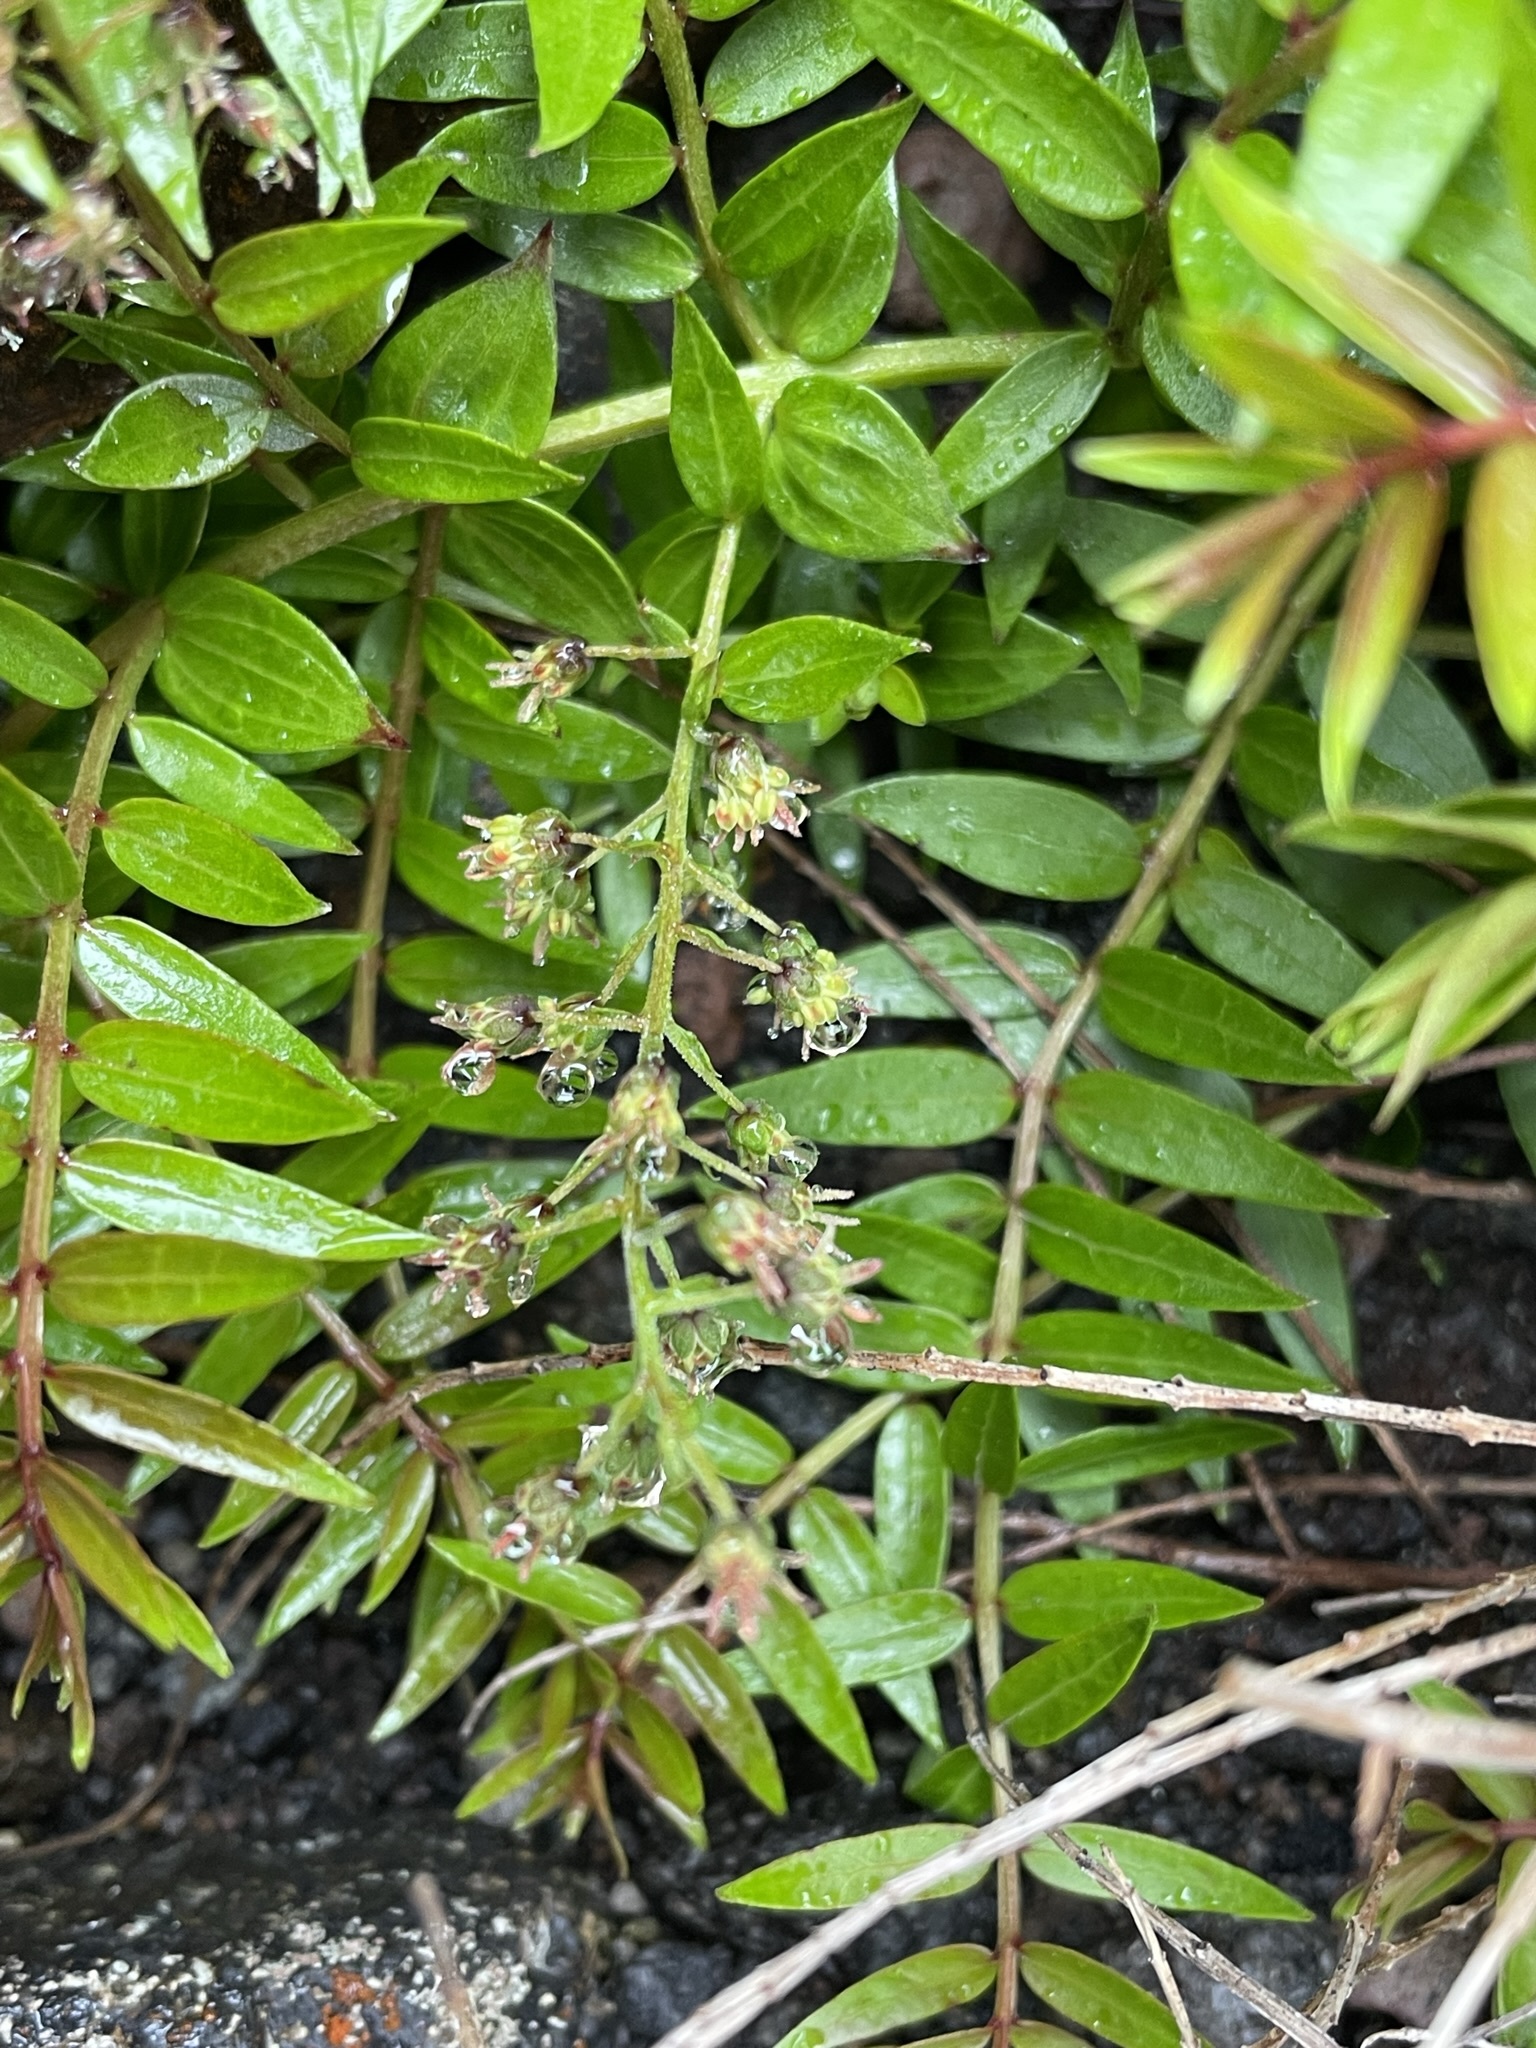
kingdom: Plantae
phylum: Tracheophyta
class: Magnoliopsida
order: Cucurbitales
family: Coriariaceae
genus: Coriaria
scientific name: Coriaria pteridoides
